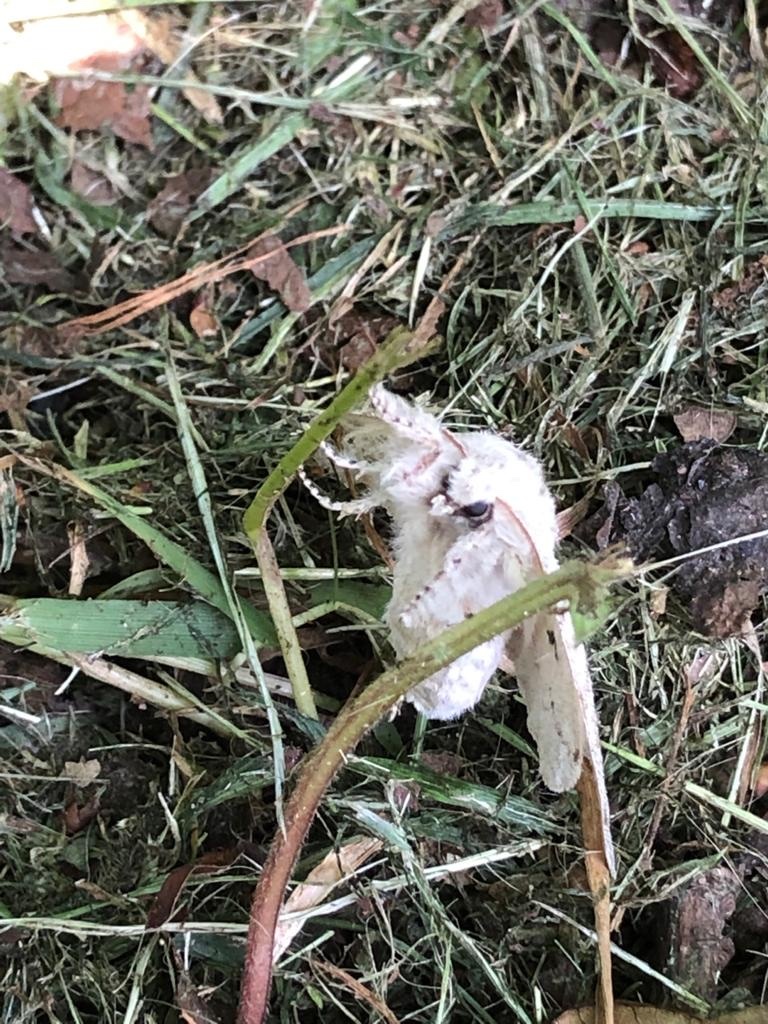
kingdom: Animalia
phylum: Arthropoda
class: Insecta
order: Lepidoptera
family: Erebidae
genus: Calliteara
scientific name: Calliteara pudibunda
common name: Pale tussock
